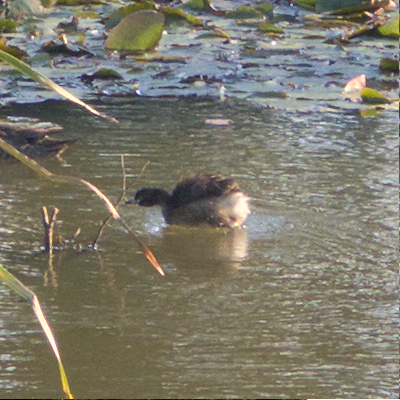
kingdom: Animalia
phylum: Chordata
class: Aves
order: Podicipediformes
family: Podicipedidae
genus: Tachybaptus
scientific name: Tachybaptus novaehollandiae
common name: Australasian grebe
